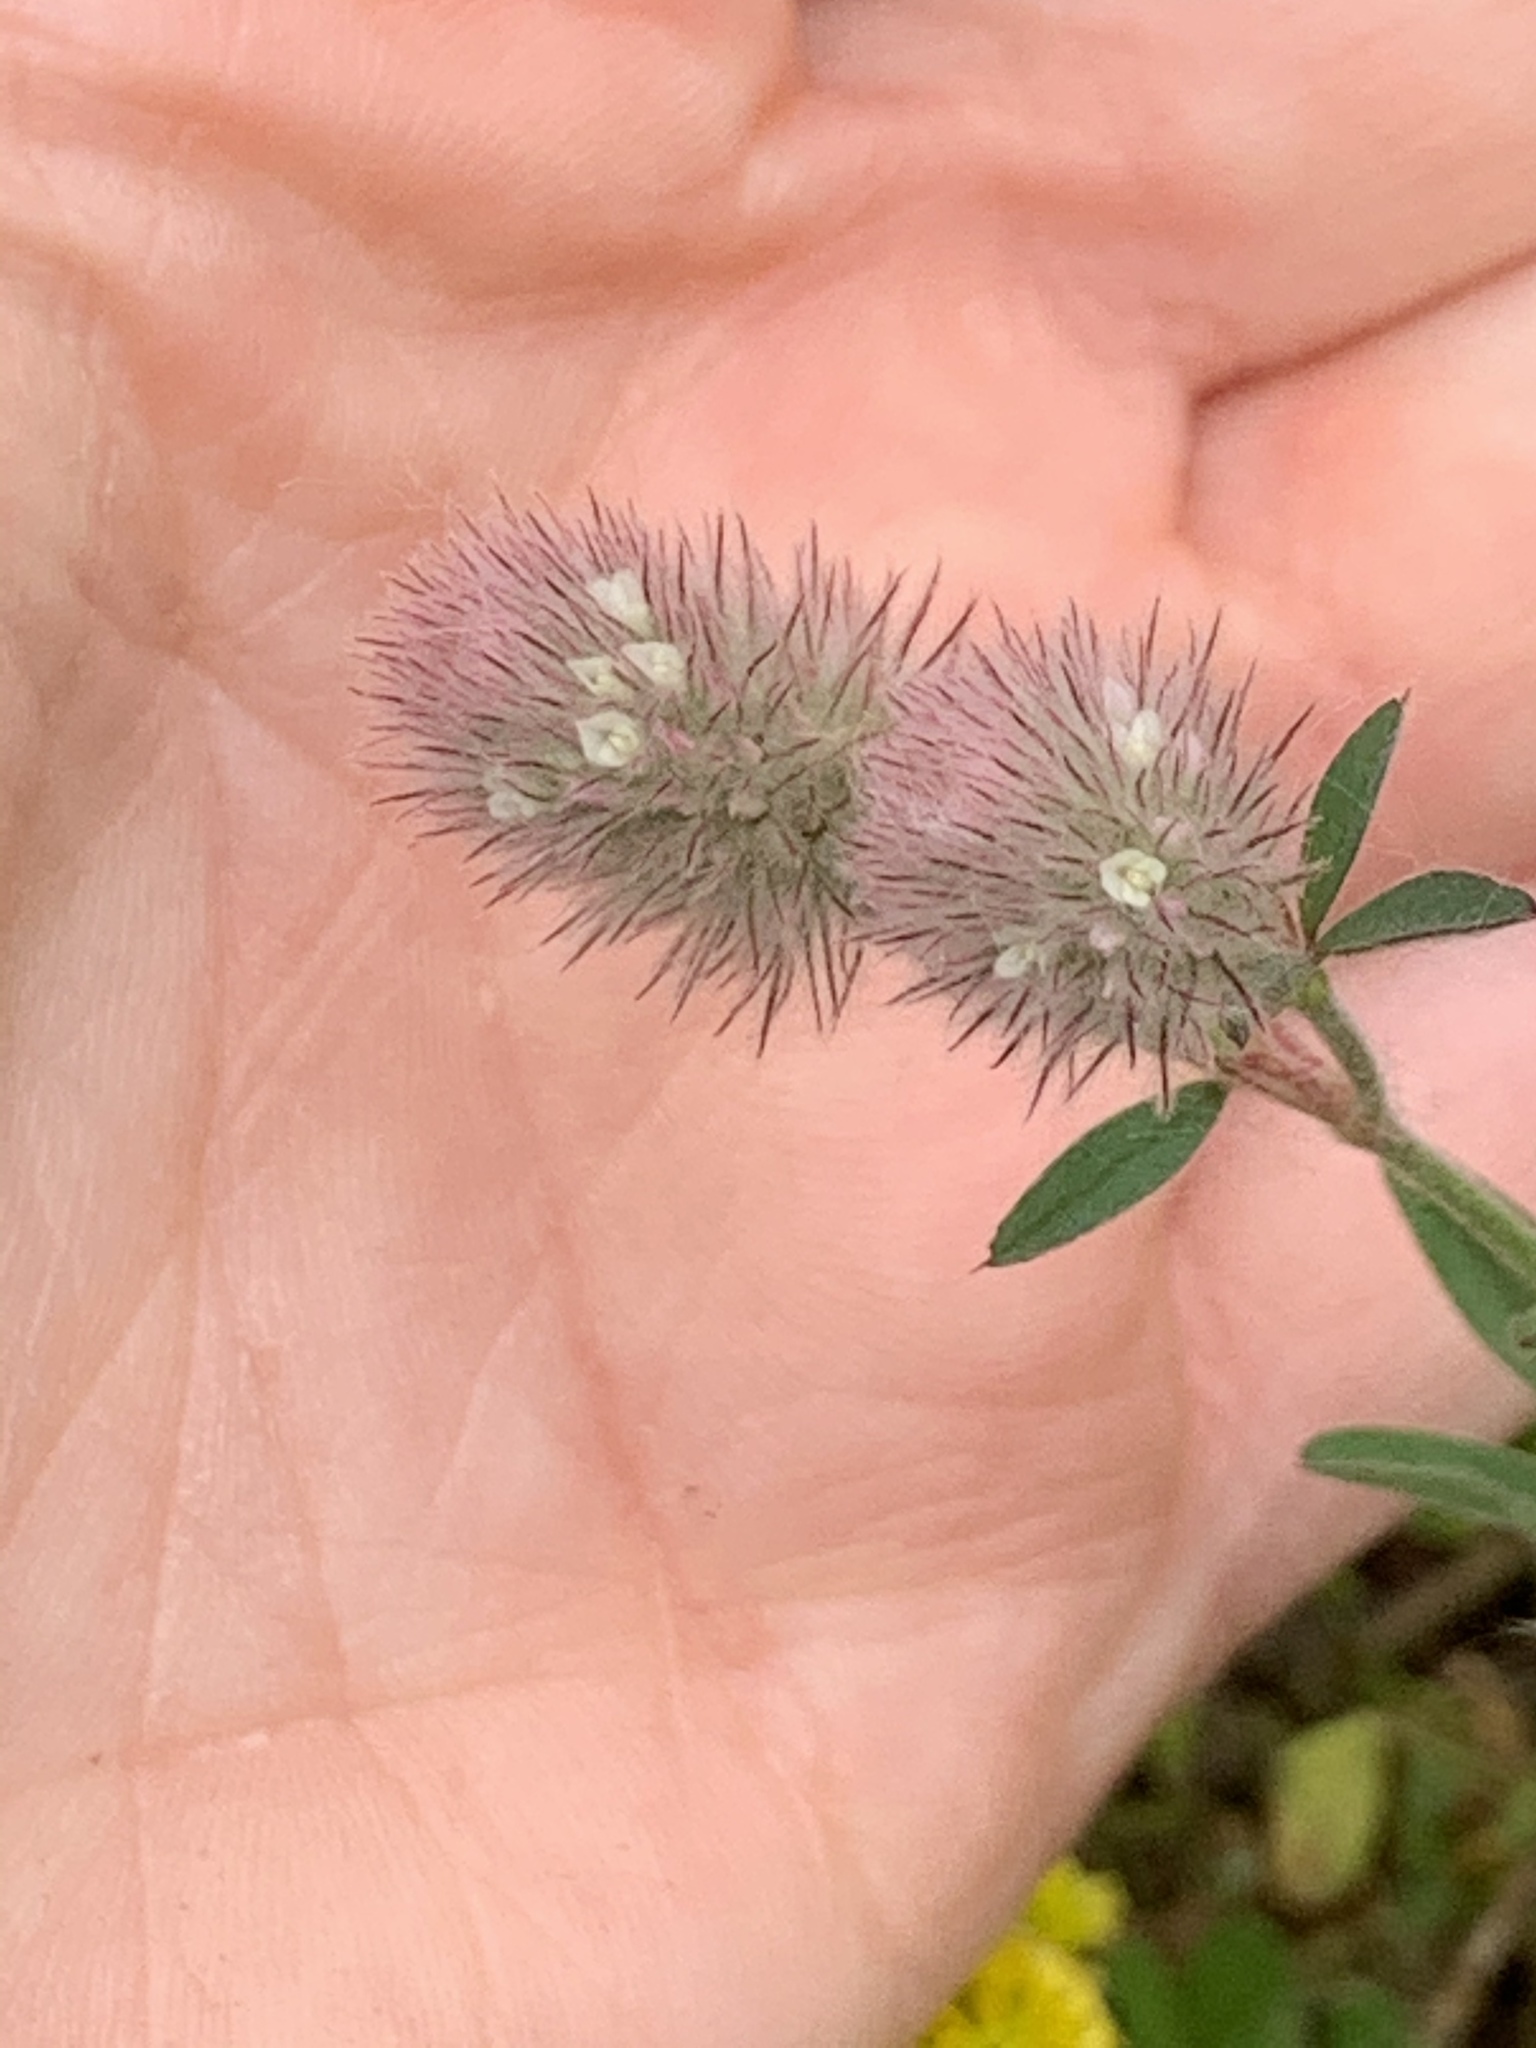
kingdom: Plantae
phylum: Tracheophyta
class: Magnoliopsida
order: Fabales
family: Fabaceae
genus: Trifolium
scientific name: Trifolium arvense
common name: Hare's-foot clover
